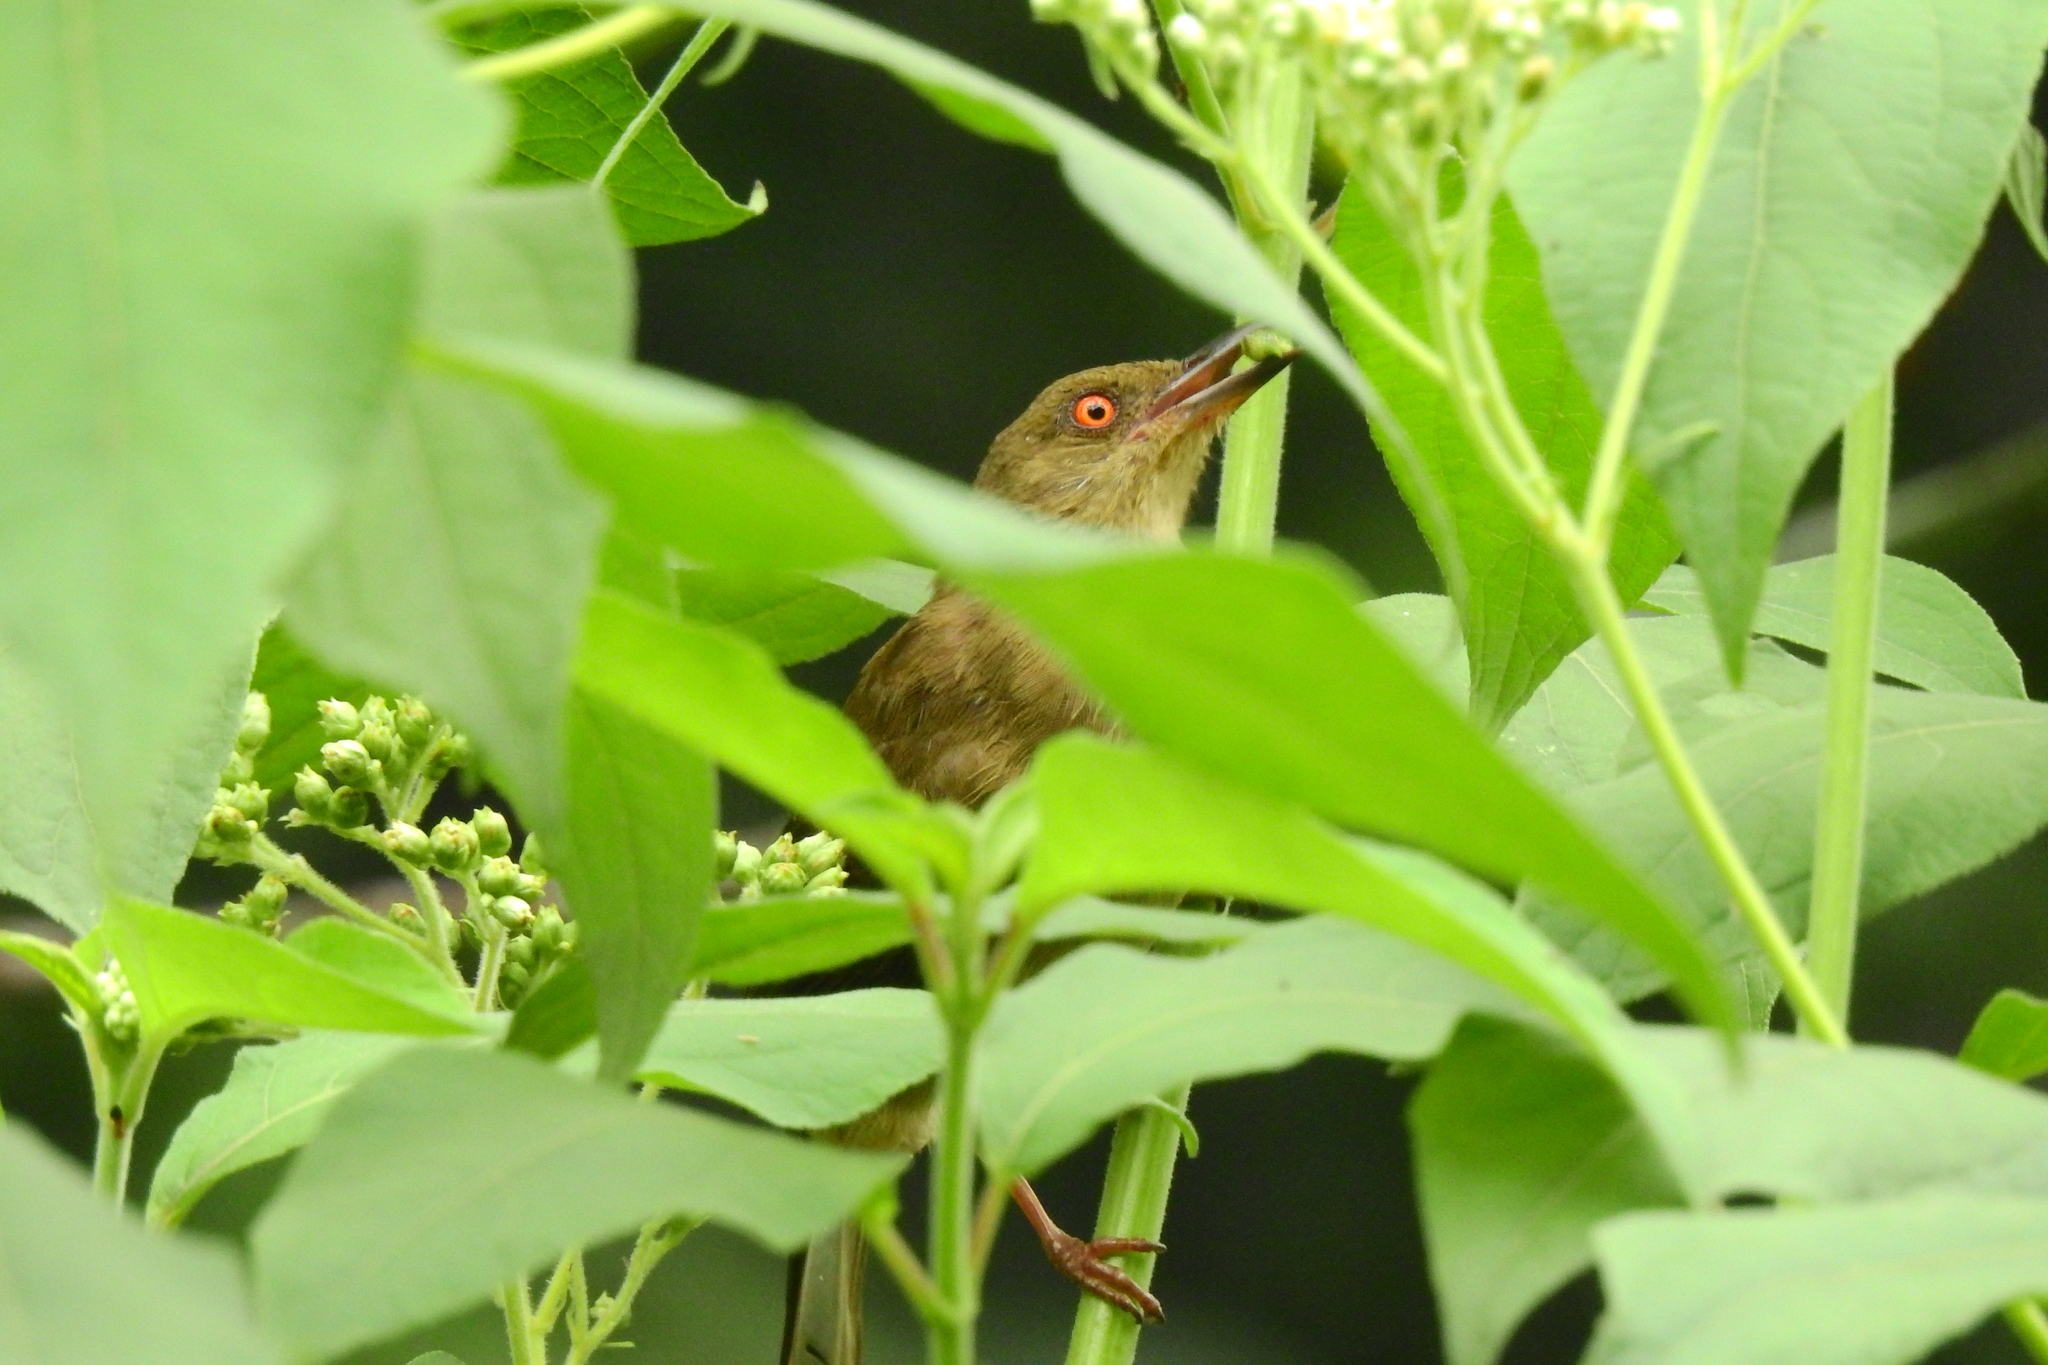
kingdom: Animalia
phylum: Chordata
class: Aves
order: Passeriformes
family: Pycnonotidae
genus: Pycnonotus
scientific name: Pycnonotus brunneus
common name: Asian red-eyed bulbul
